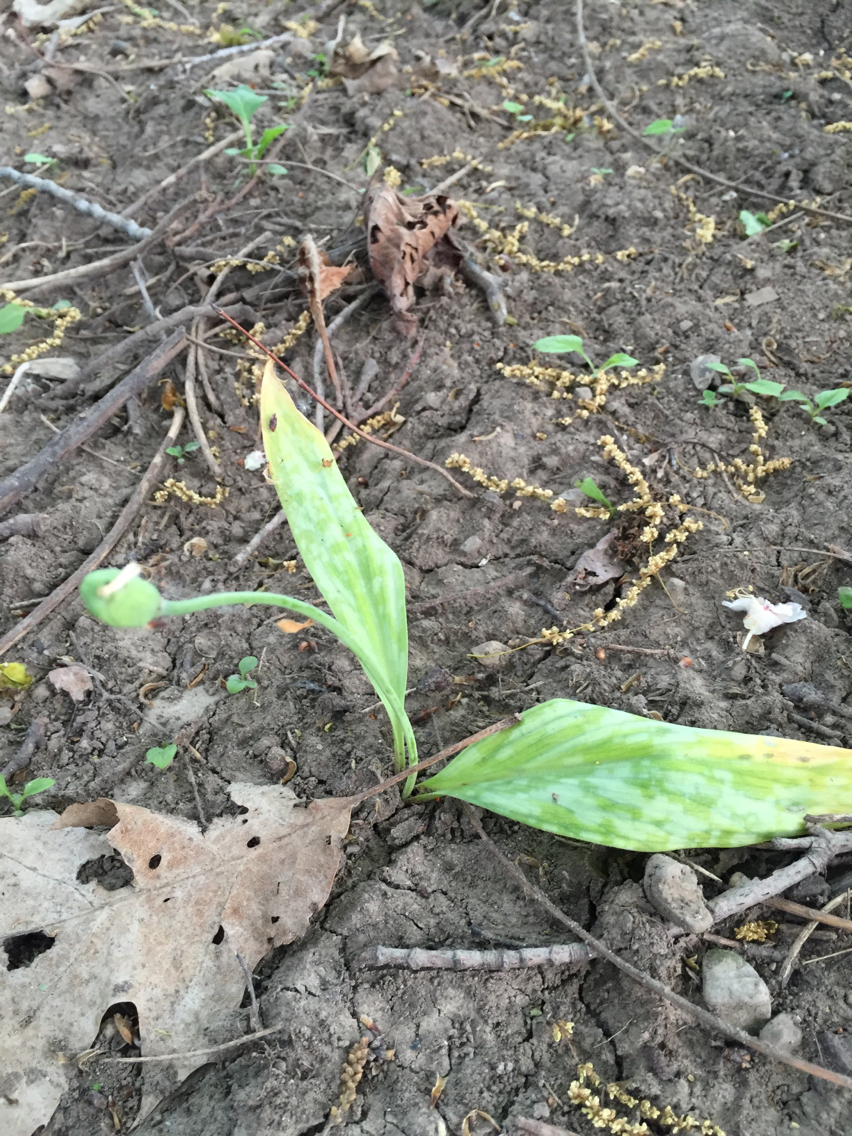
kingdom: Plantae
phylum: Tracheophyta
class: Liliopsida
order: Liliales
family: Liliaceae
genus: Erythronium
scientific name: Erythronium americanum
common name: Yellow adder's-tongue
